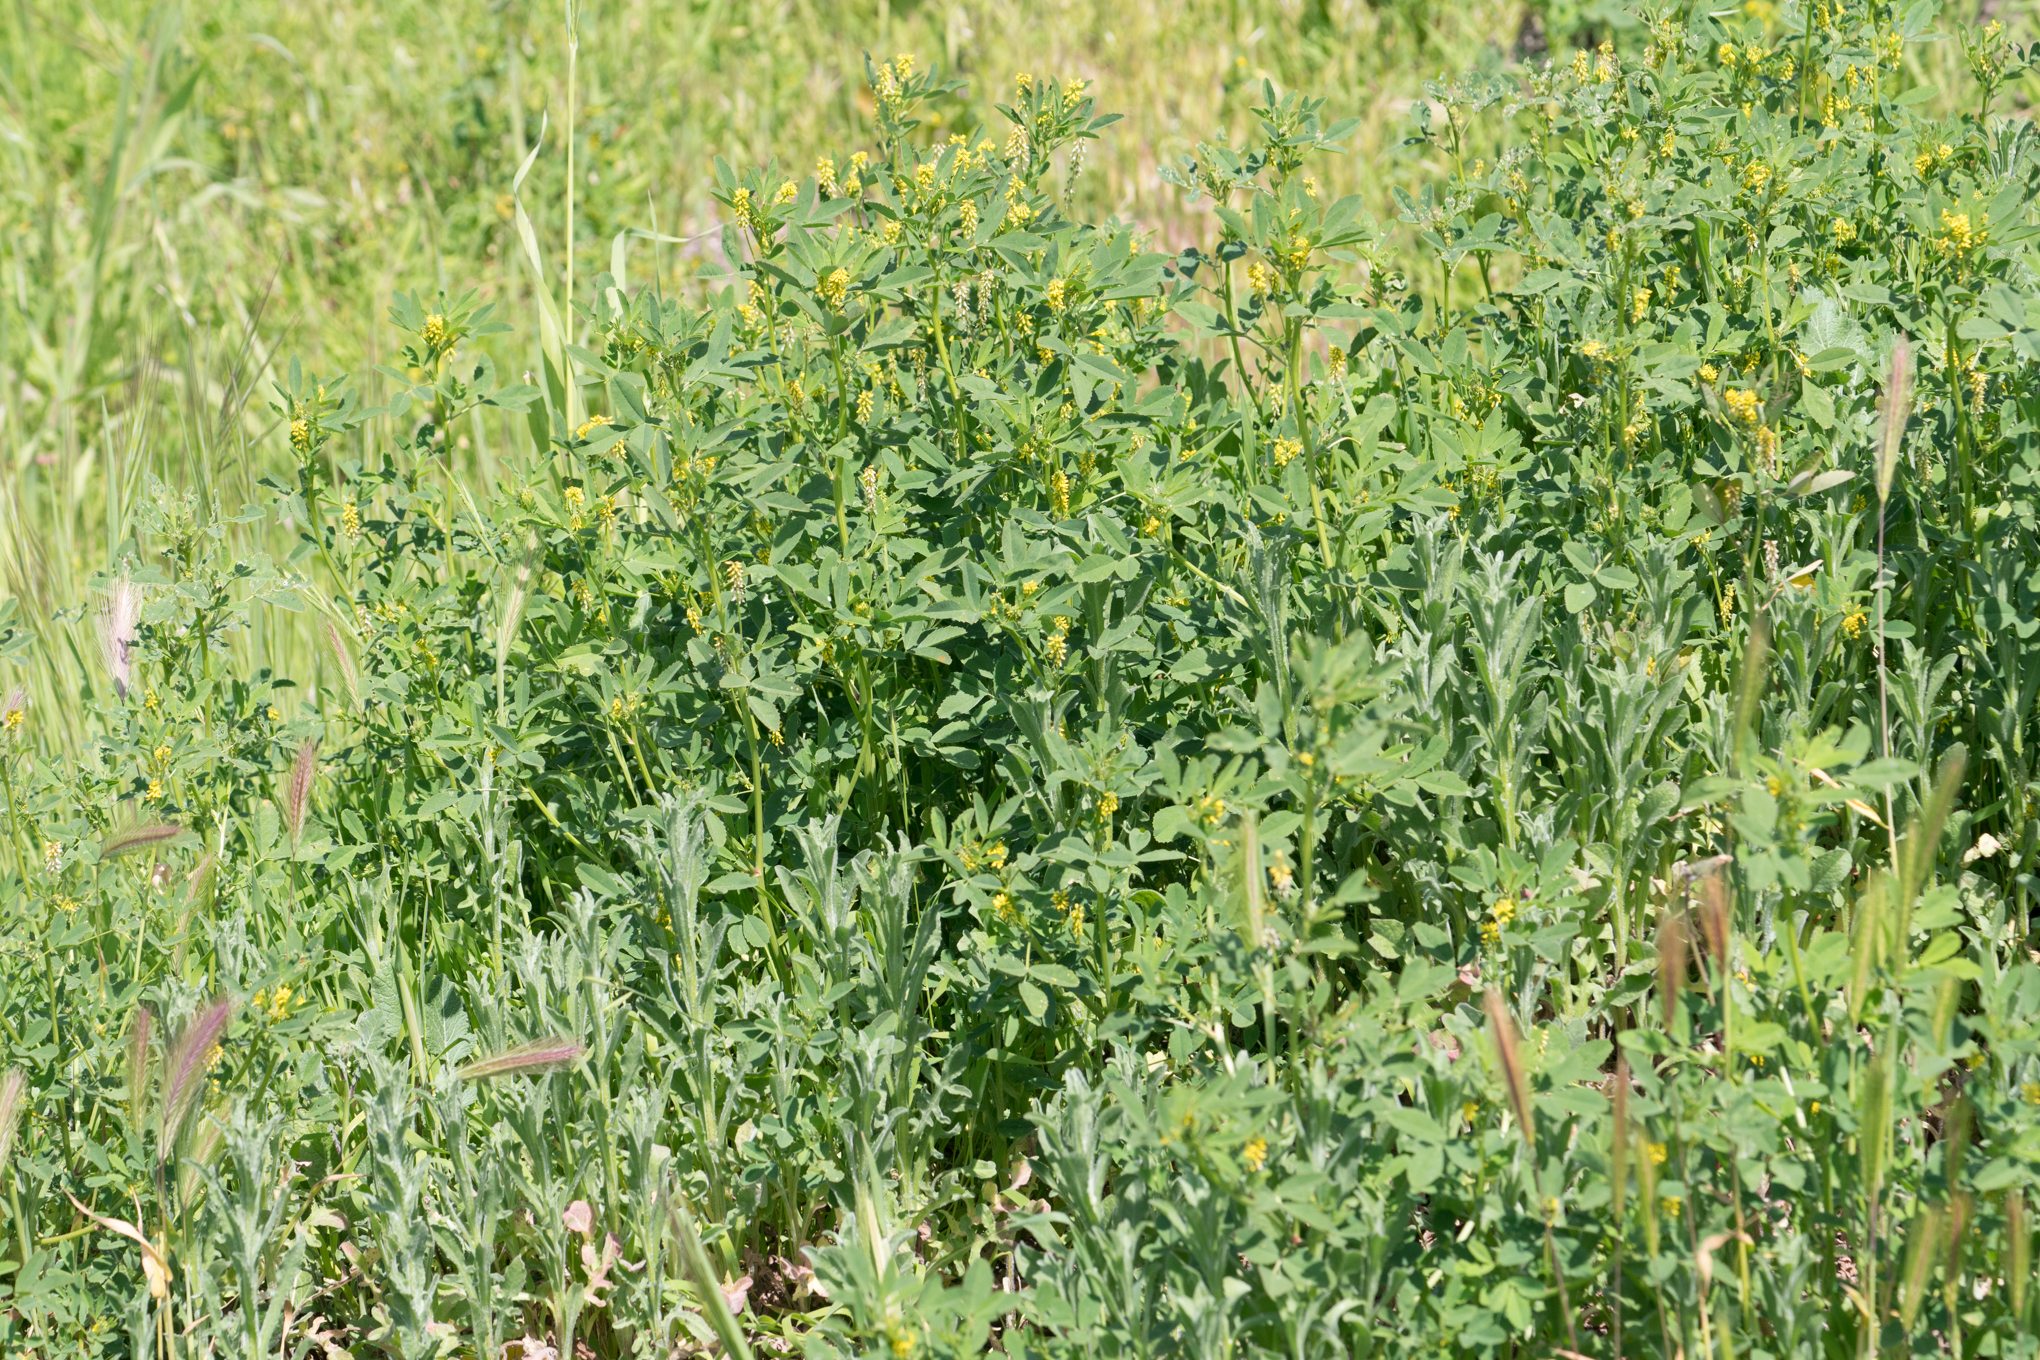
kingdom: Plantae
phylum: Tracheophyta
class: Magnoliopsida
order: Fabales
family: Fabaceae
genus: Melilotus
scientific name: Melilotus indicus
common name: Small melilot
